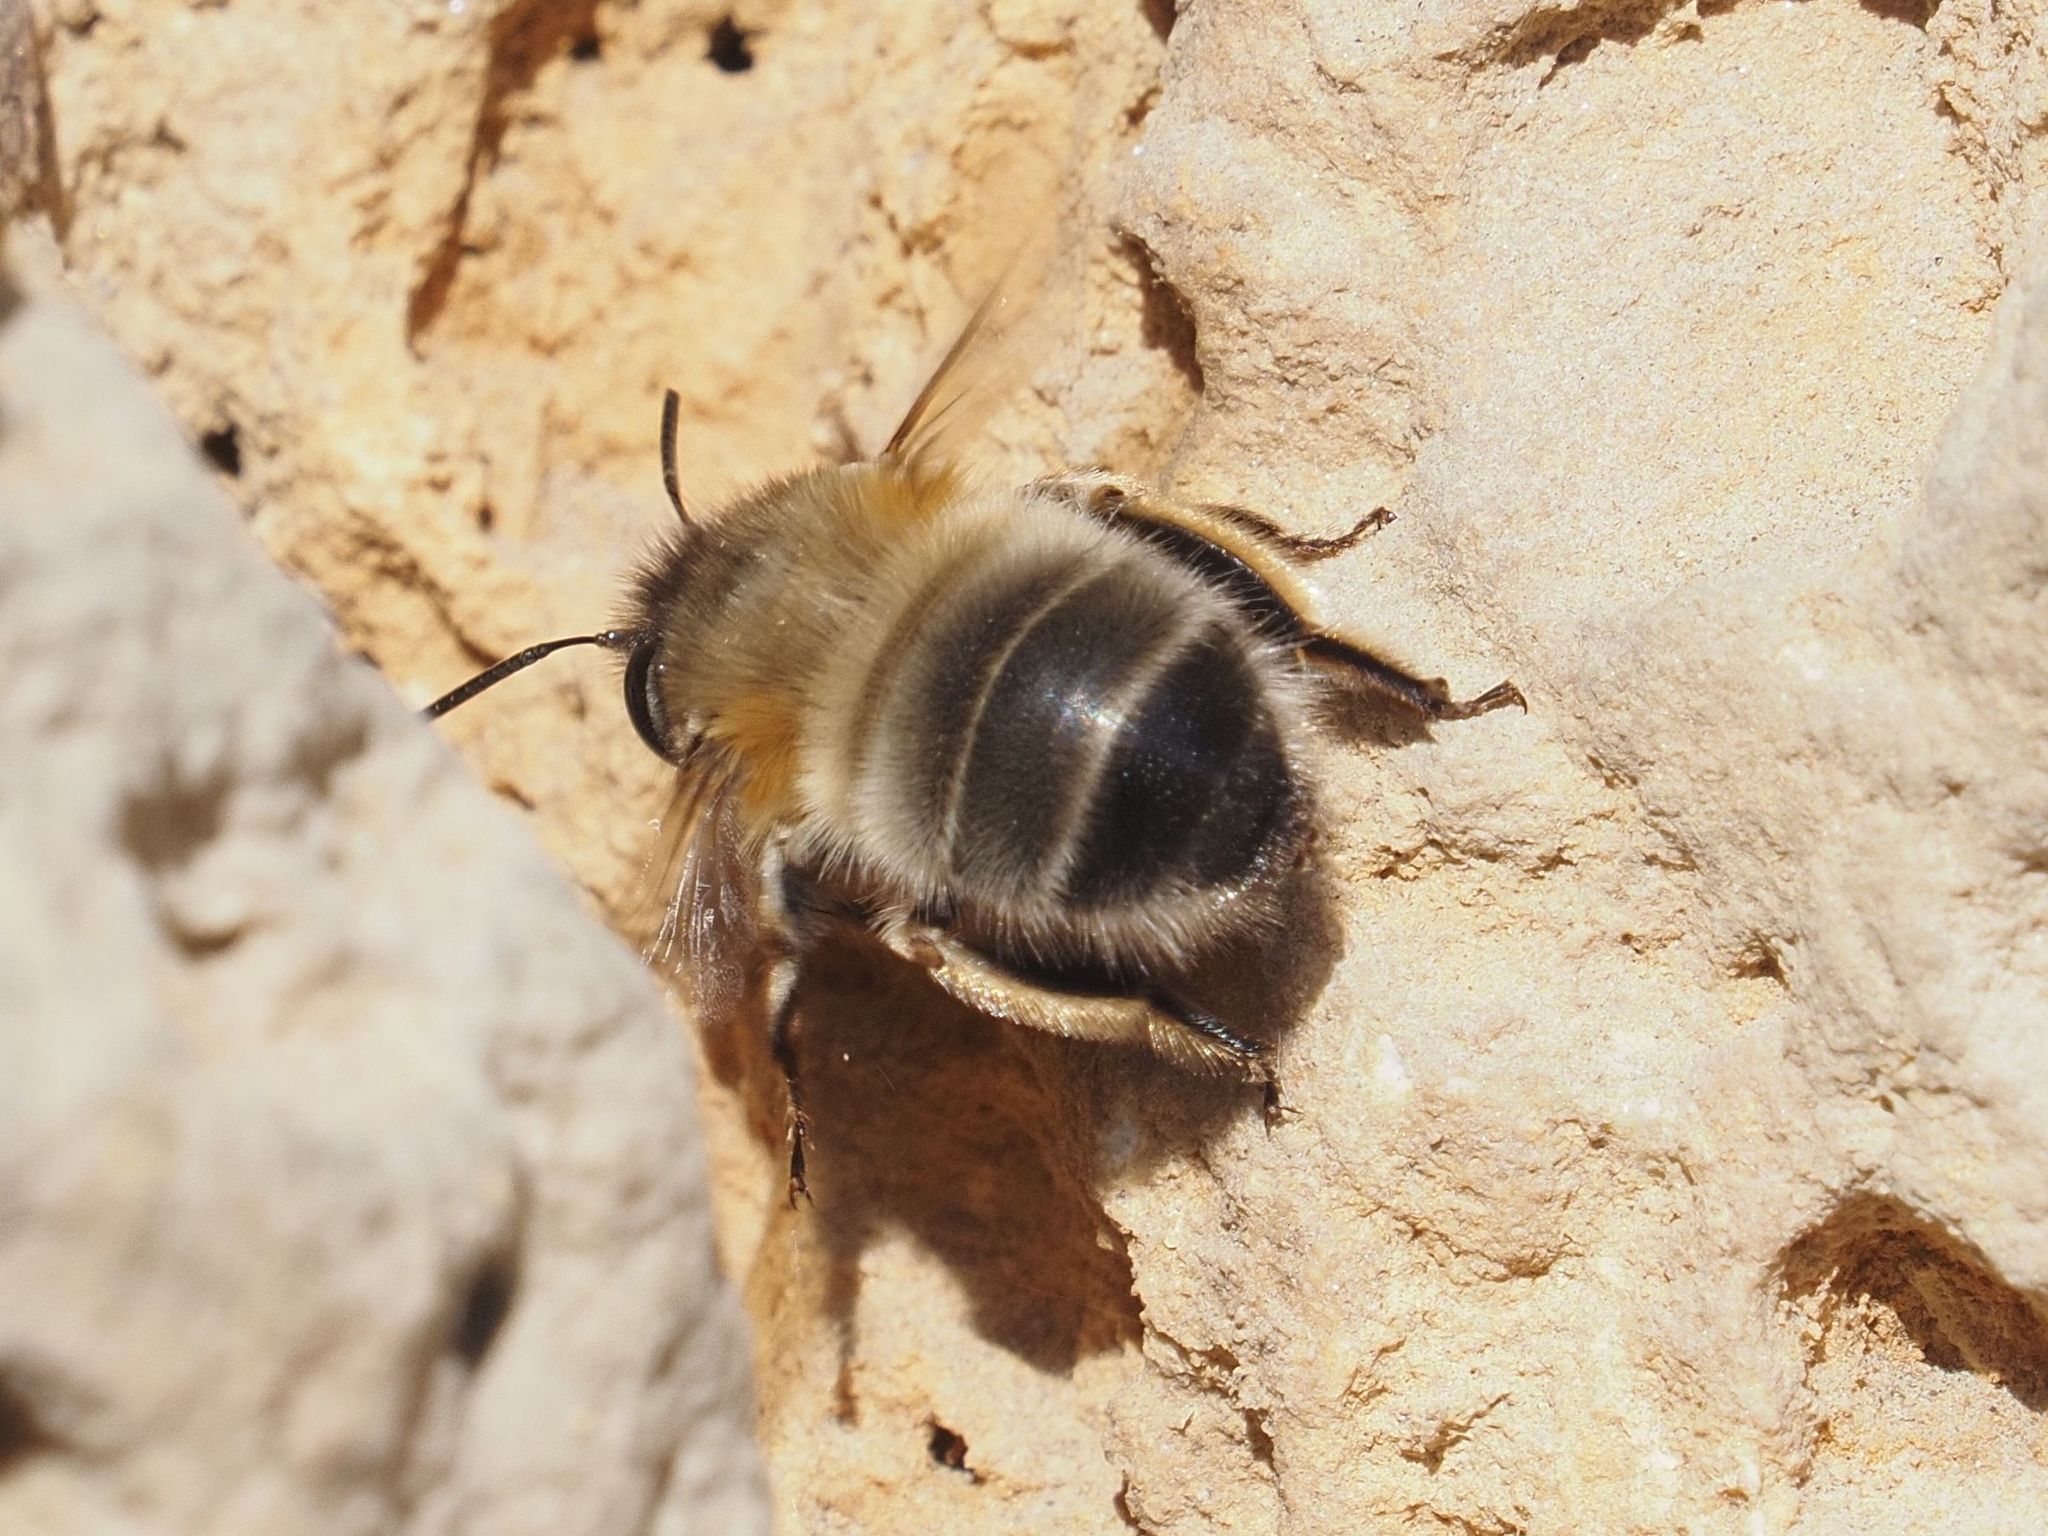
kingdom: Animalia
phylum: Arthropoda
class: Insecta
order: Hymenoptera
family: Apidae
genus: Anthophora
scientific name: Anthophora plumipes
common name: Hairy-footed flower bee
